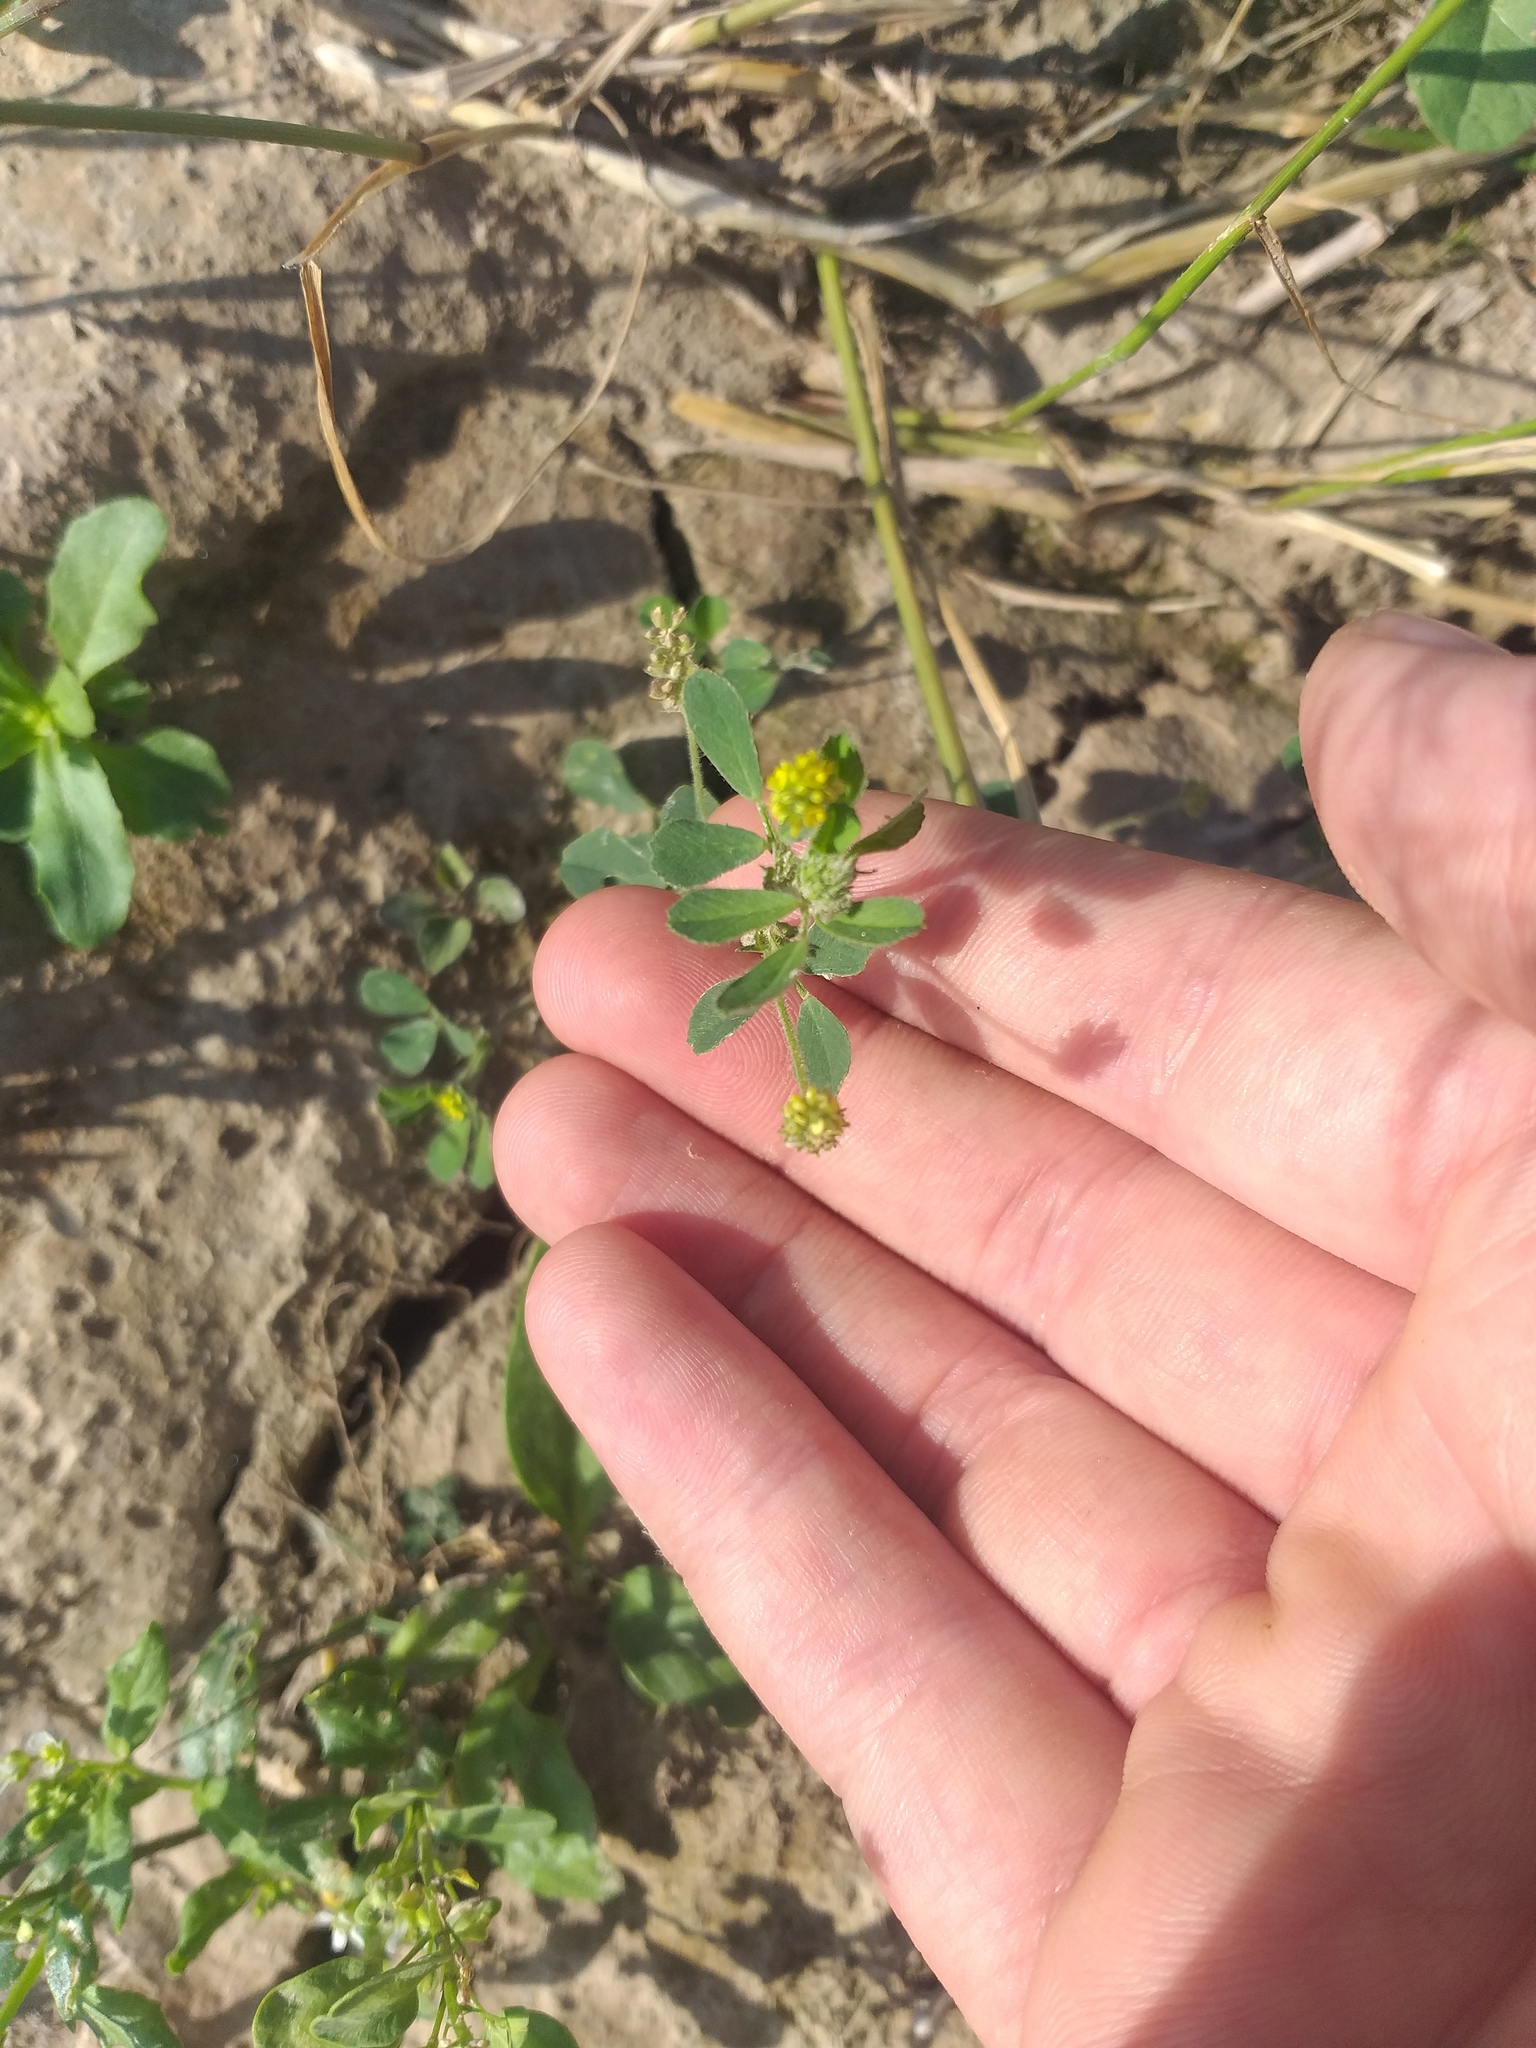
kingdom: Plantae
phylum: Tracheophyta
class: Magnoliopsida
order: Fabales
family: Fabaceae
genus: Medicago
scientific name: Medicago lupulina
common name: Black medick
